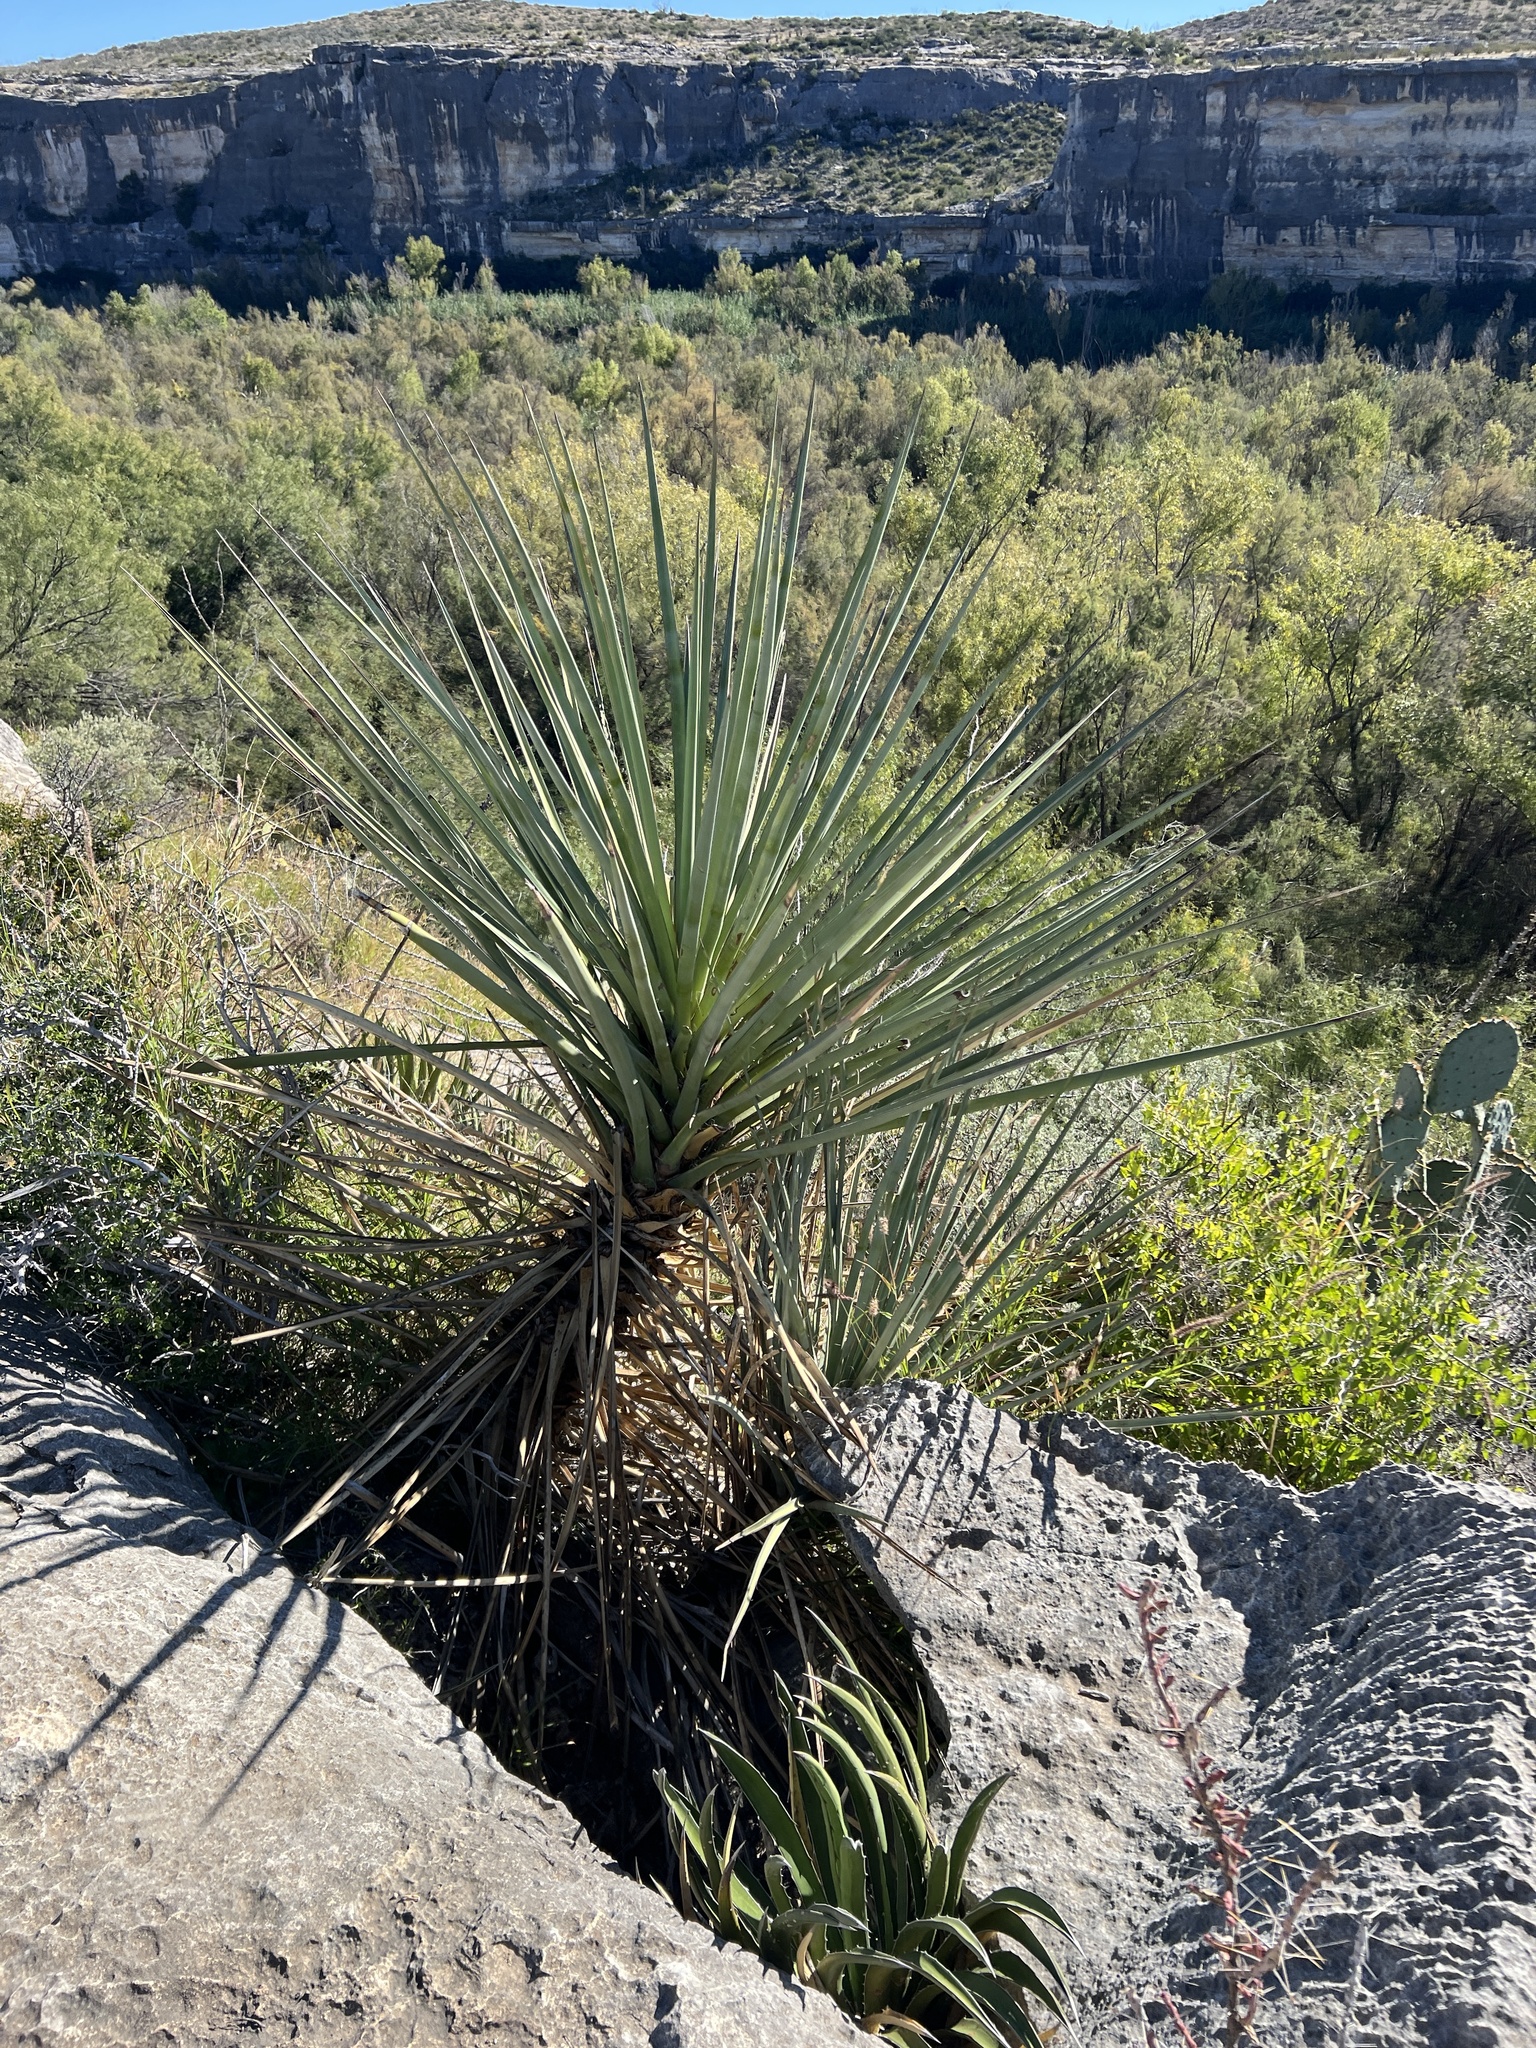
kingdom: Plantae
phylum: Tracheophyta
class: Liliopsida
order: Asparagales
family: Asparagaceae
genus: Yucca
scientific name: Yucca treculiana
